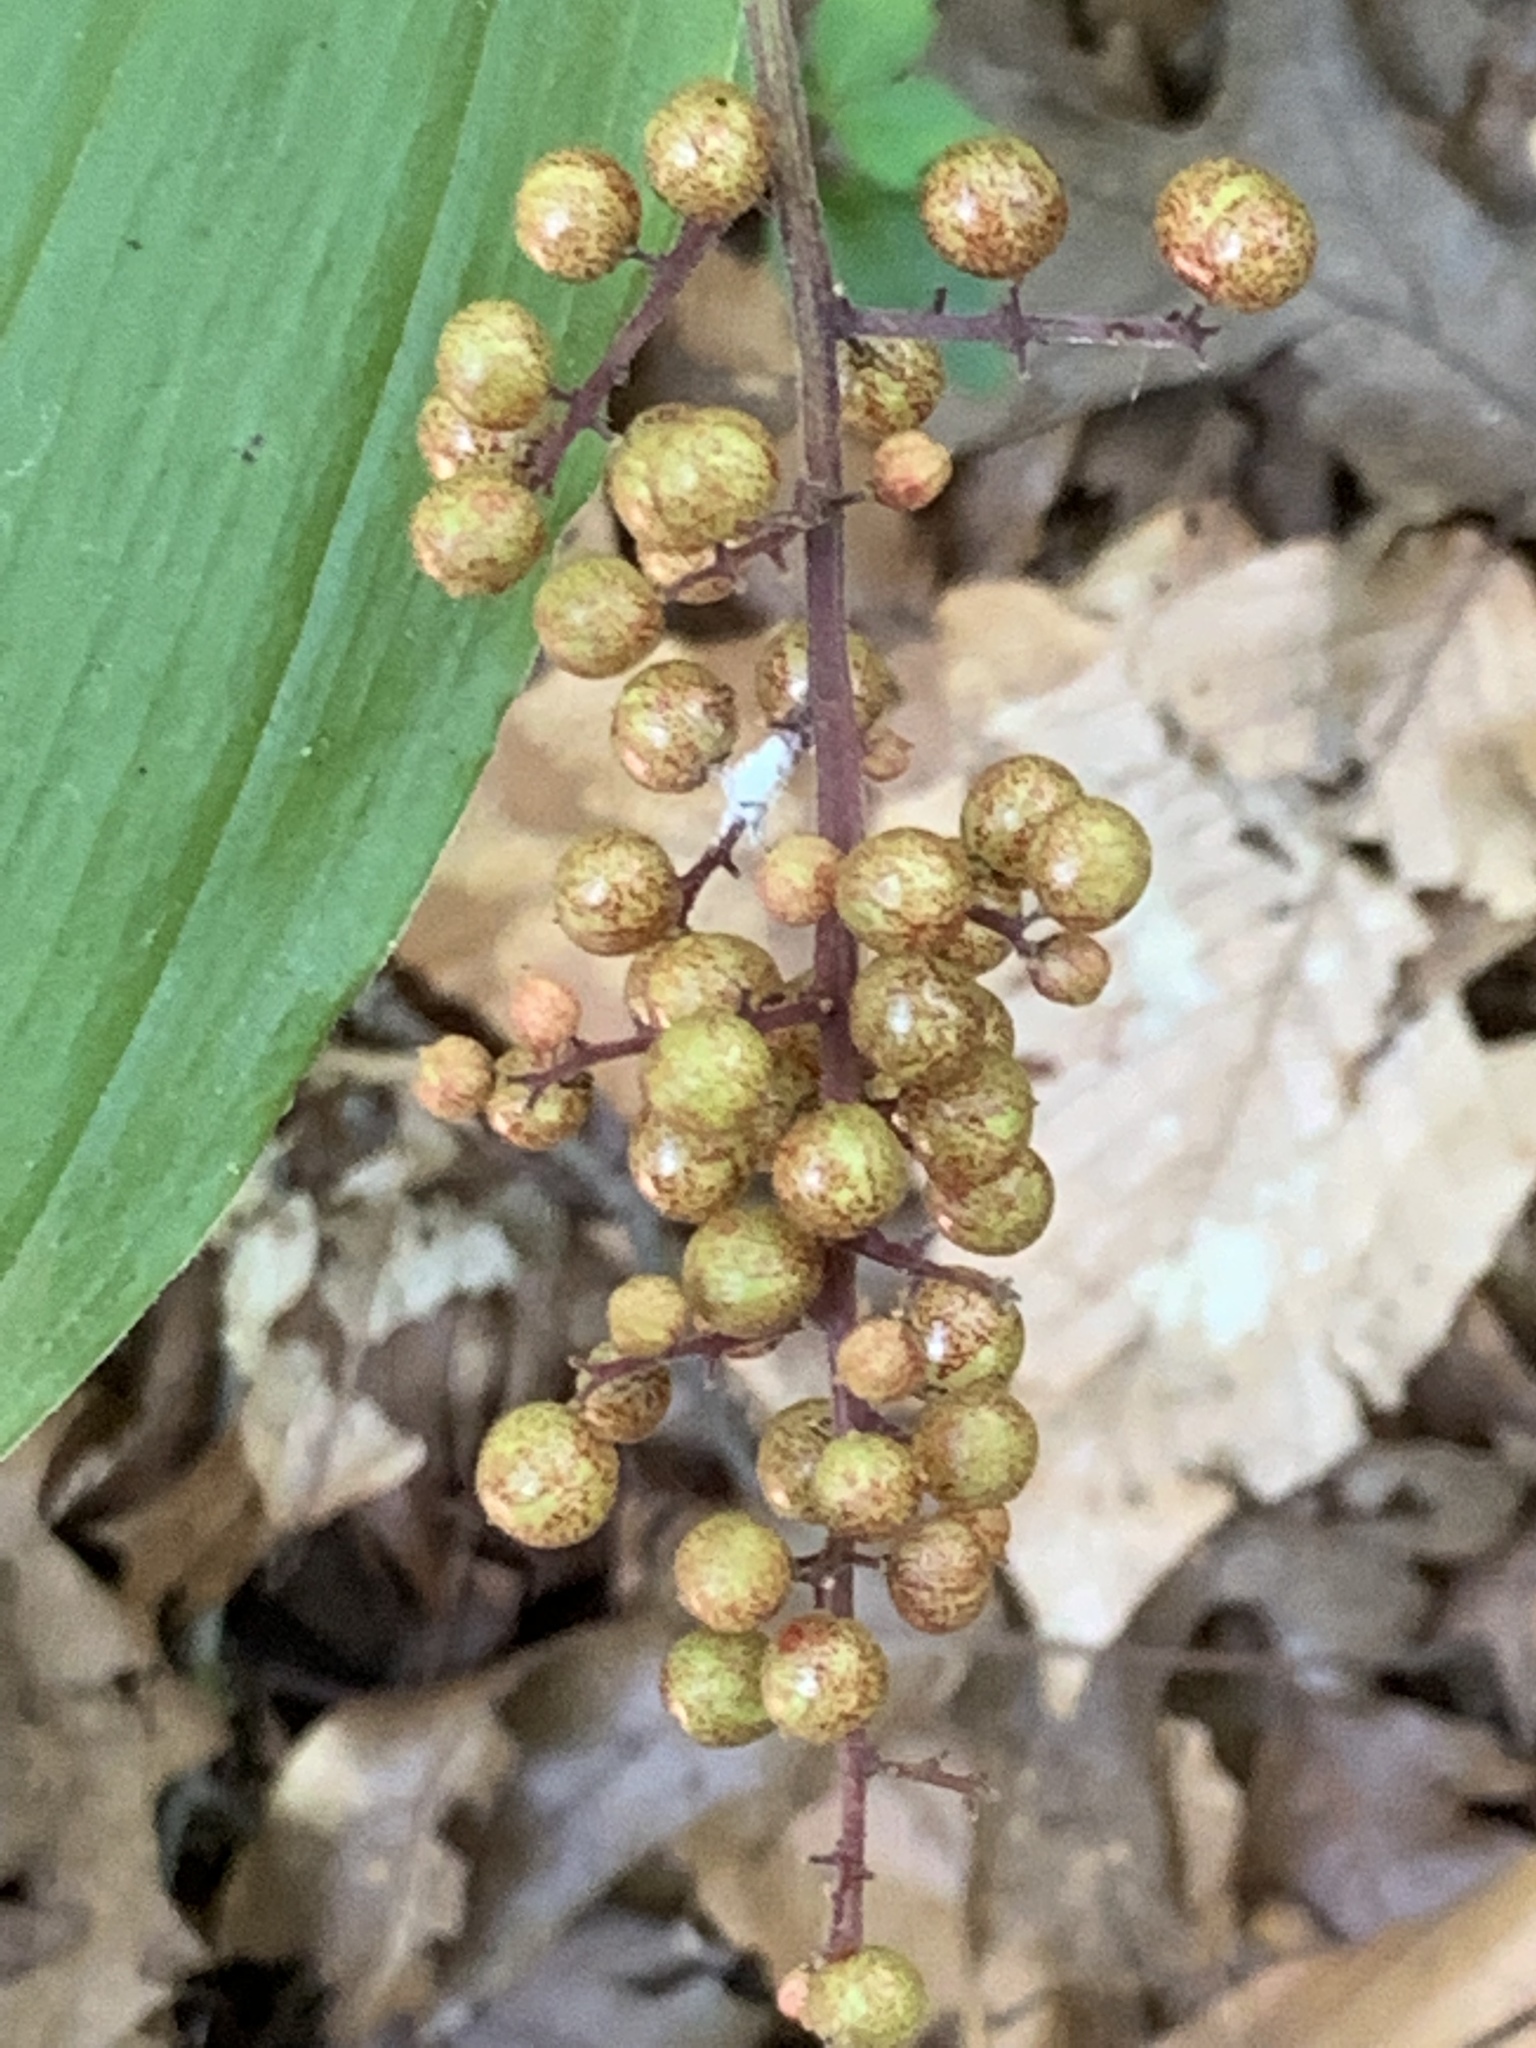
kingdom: Plantae
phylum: Tracheophyta
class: Liliopsida
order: Asparagales
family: Asparagaceae
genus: Maianthemum
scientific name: Maianthemum racemosum
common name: False spikenard
